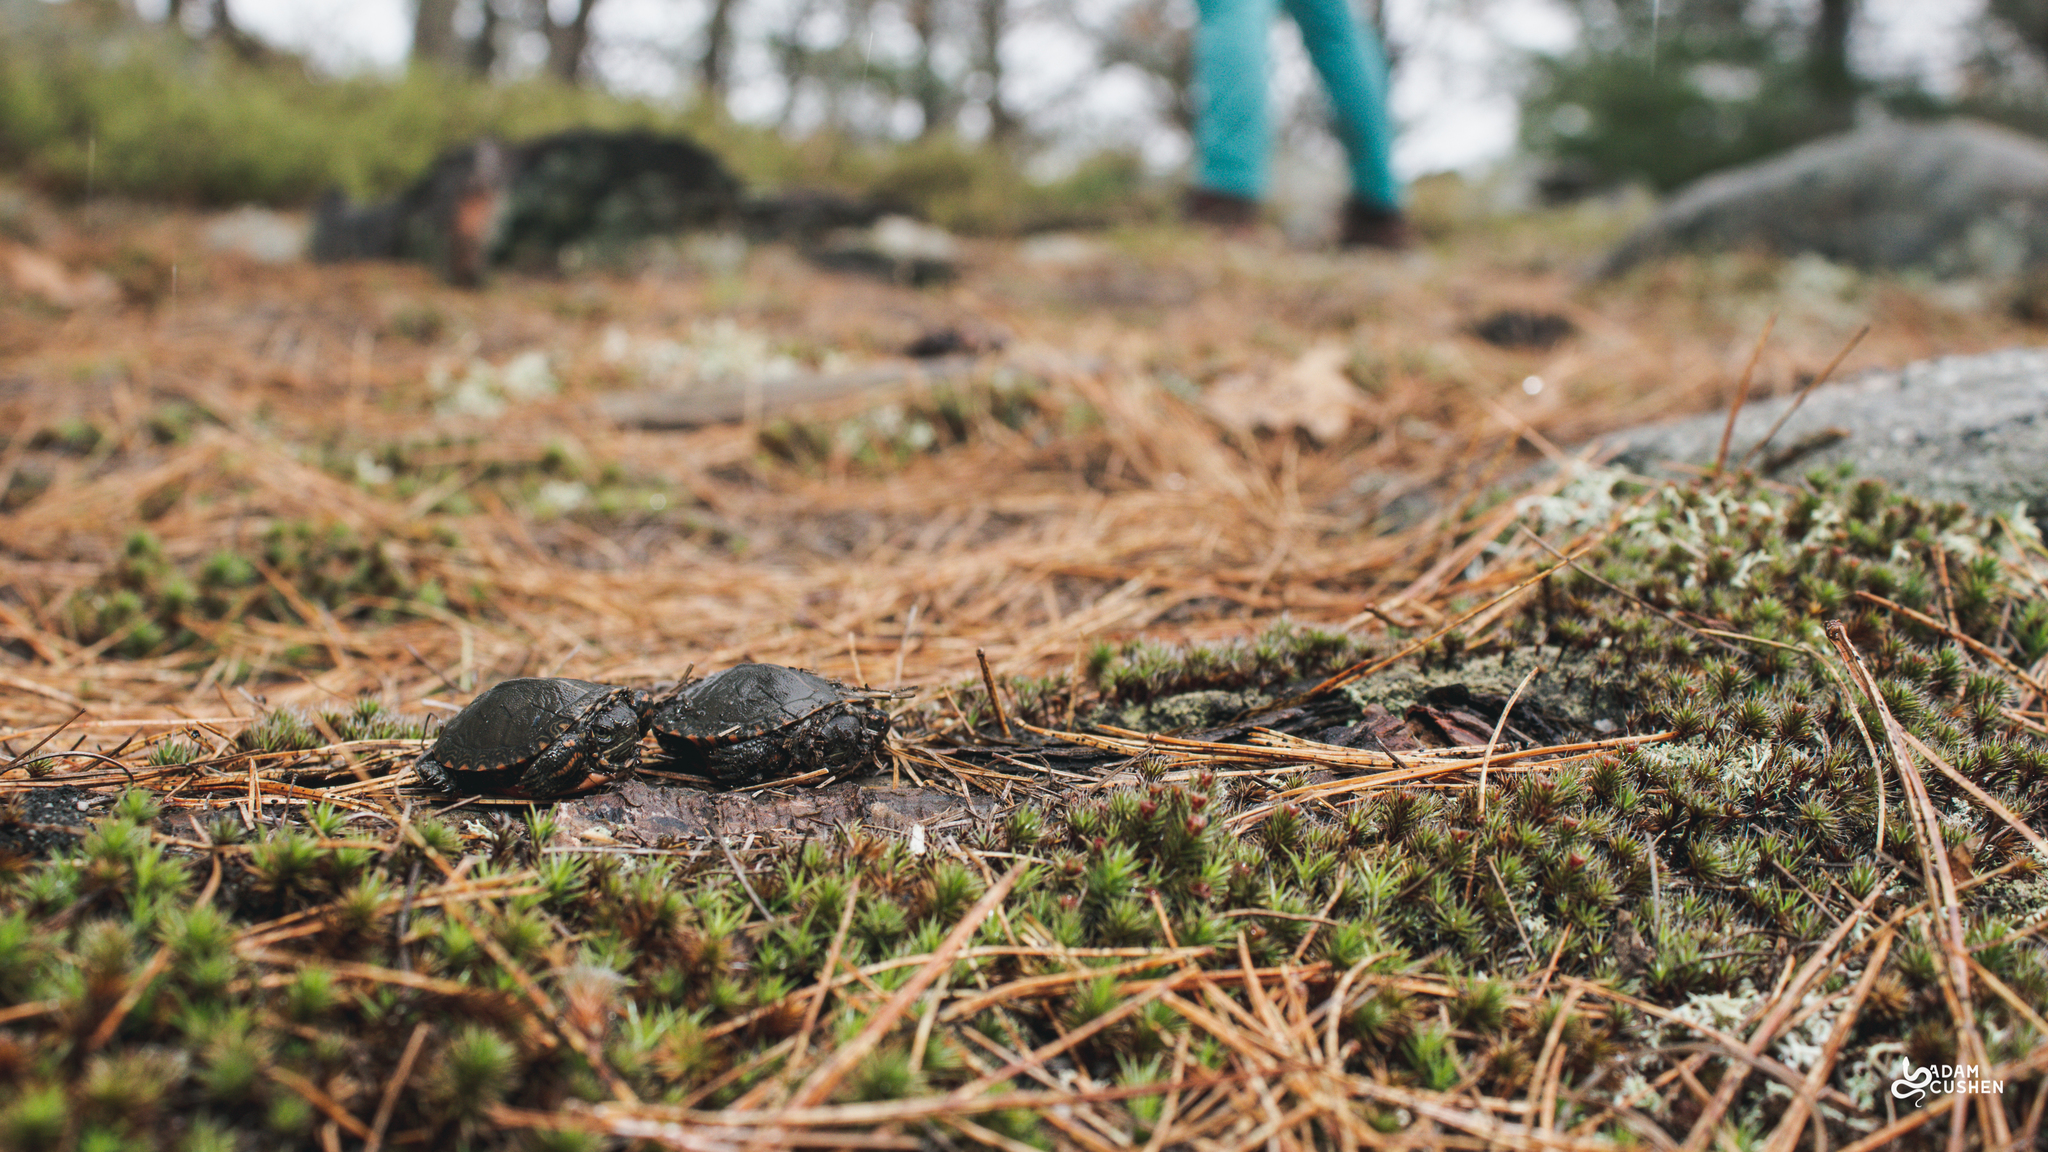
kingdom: Animalia
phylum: Chordata
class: Testudines
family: Emydidae
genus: Chrysemys
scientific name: Chrysemys picta
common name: Painted turtle
